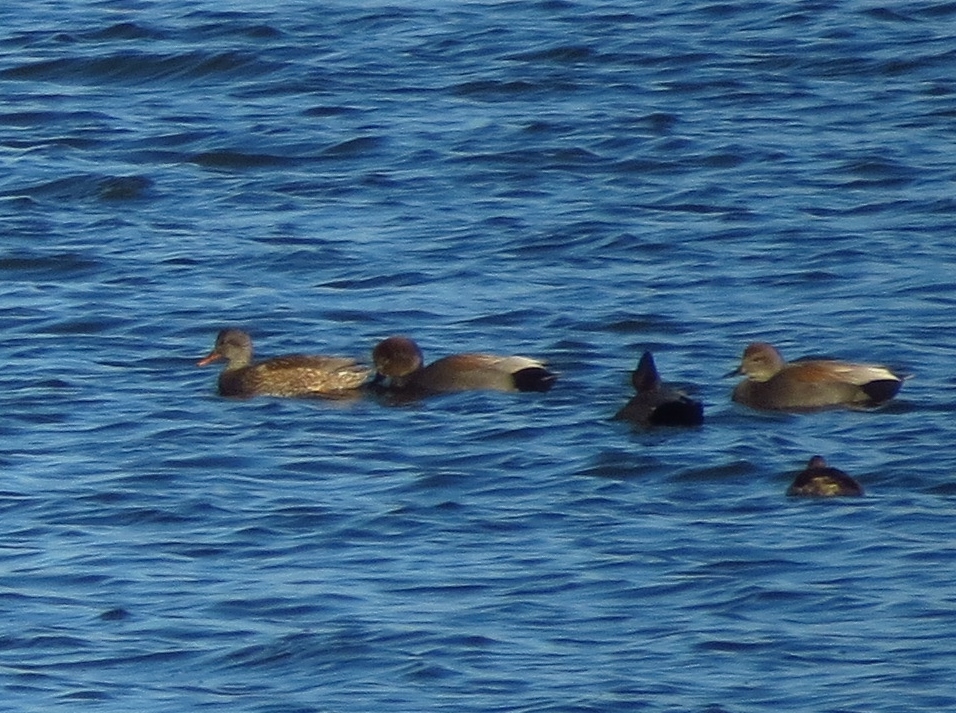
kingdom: Animalia
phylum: Chordata
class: Aves
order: Anseriformes
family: Anatidae
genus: Mareca
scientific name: Mareca strepera
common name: Gadwall
